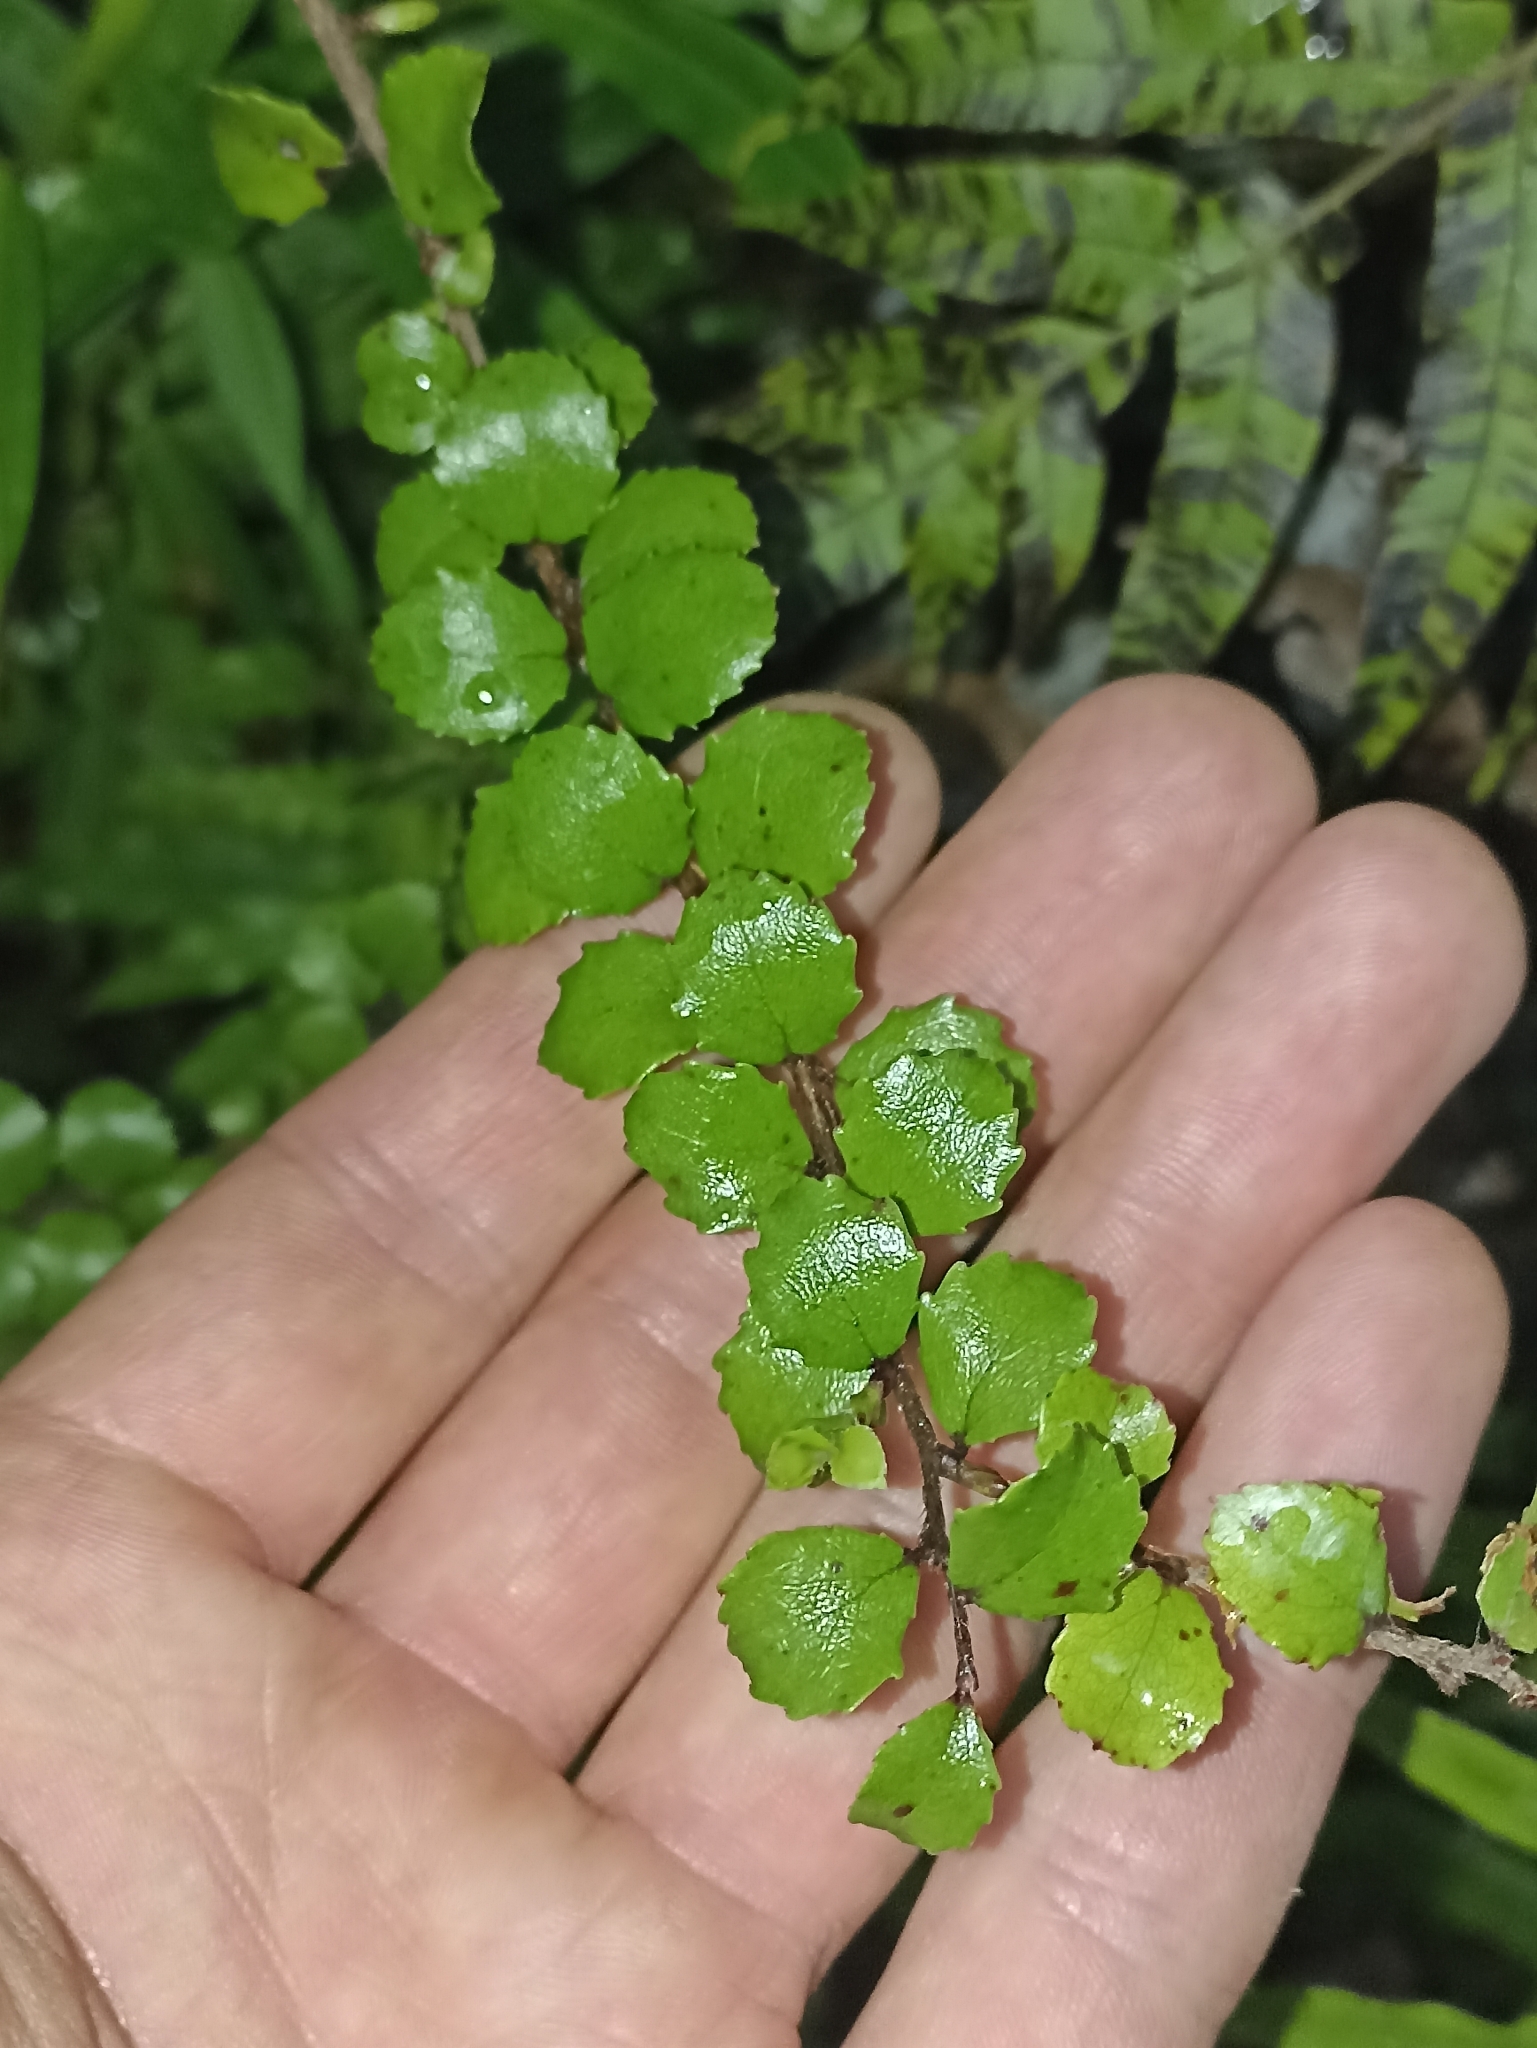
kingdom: Plantae
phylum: Tracheophyta
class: Magnoliopsida
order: Ericales
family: Ericaceae
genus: Gaultheria
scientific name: Gaultheria antipoda
